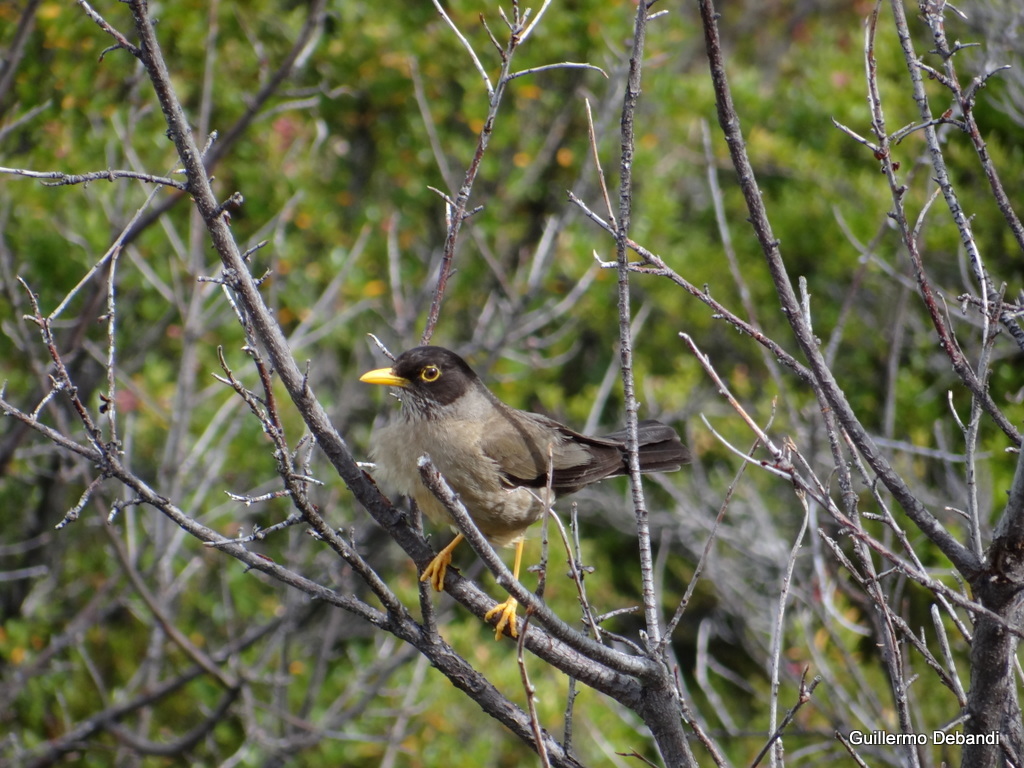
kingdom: Animalia
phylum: Chordata
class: Aves
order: Passeriformes
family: Turdidae
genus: Turdus
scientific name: Turdus falcklandii
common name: Austral thrush
